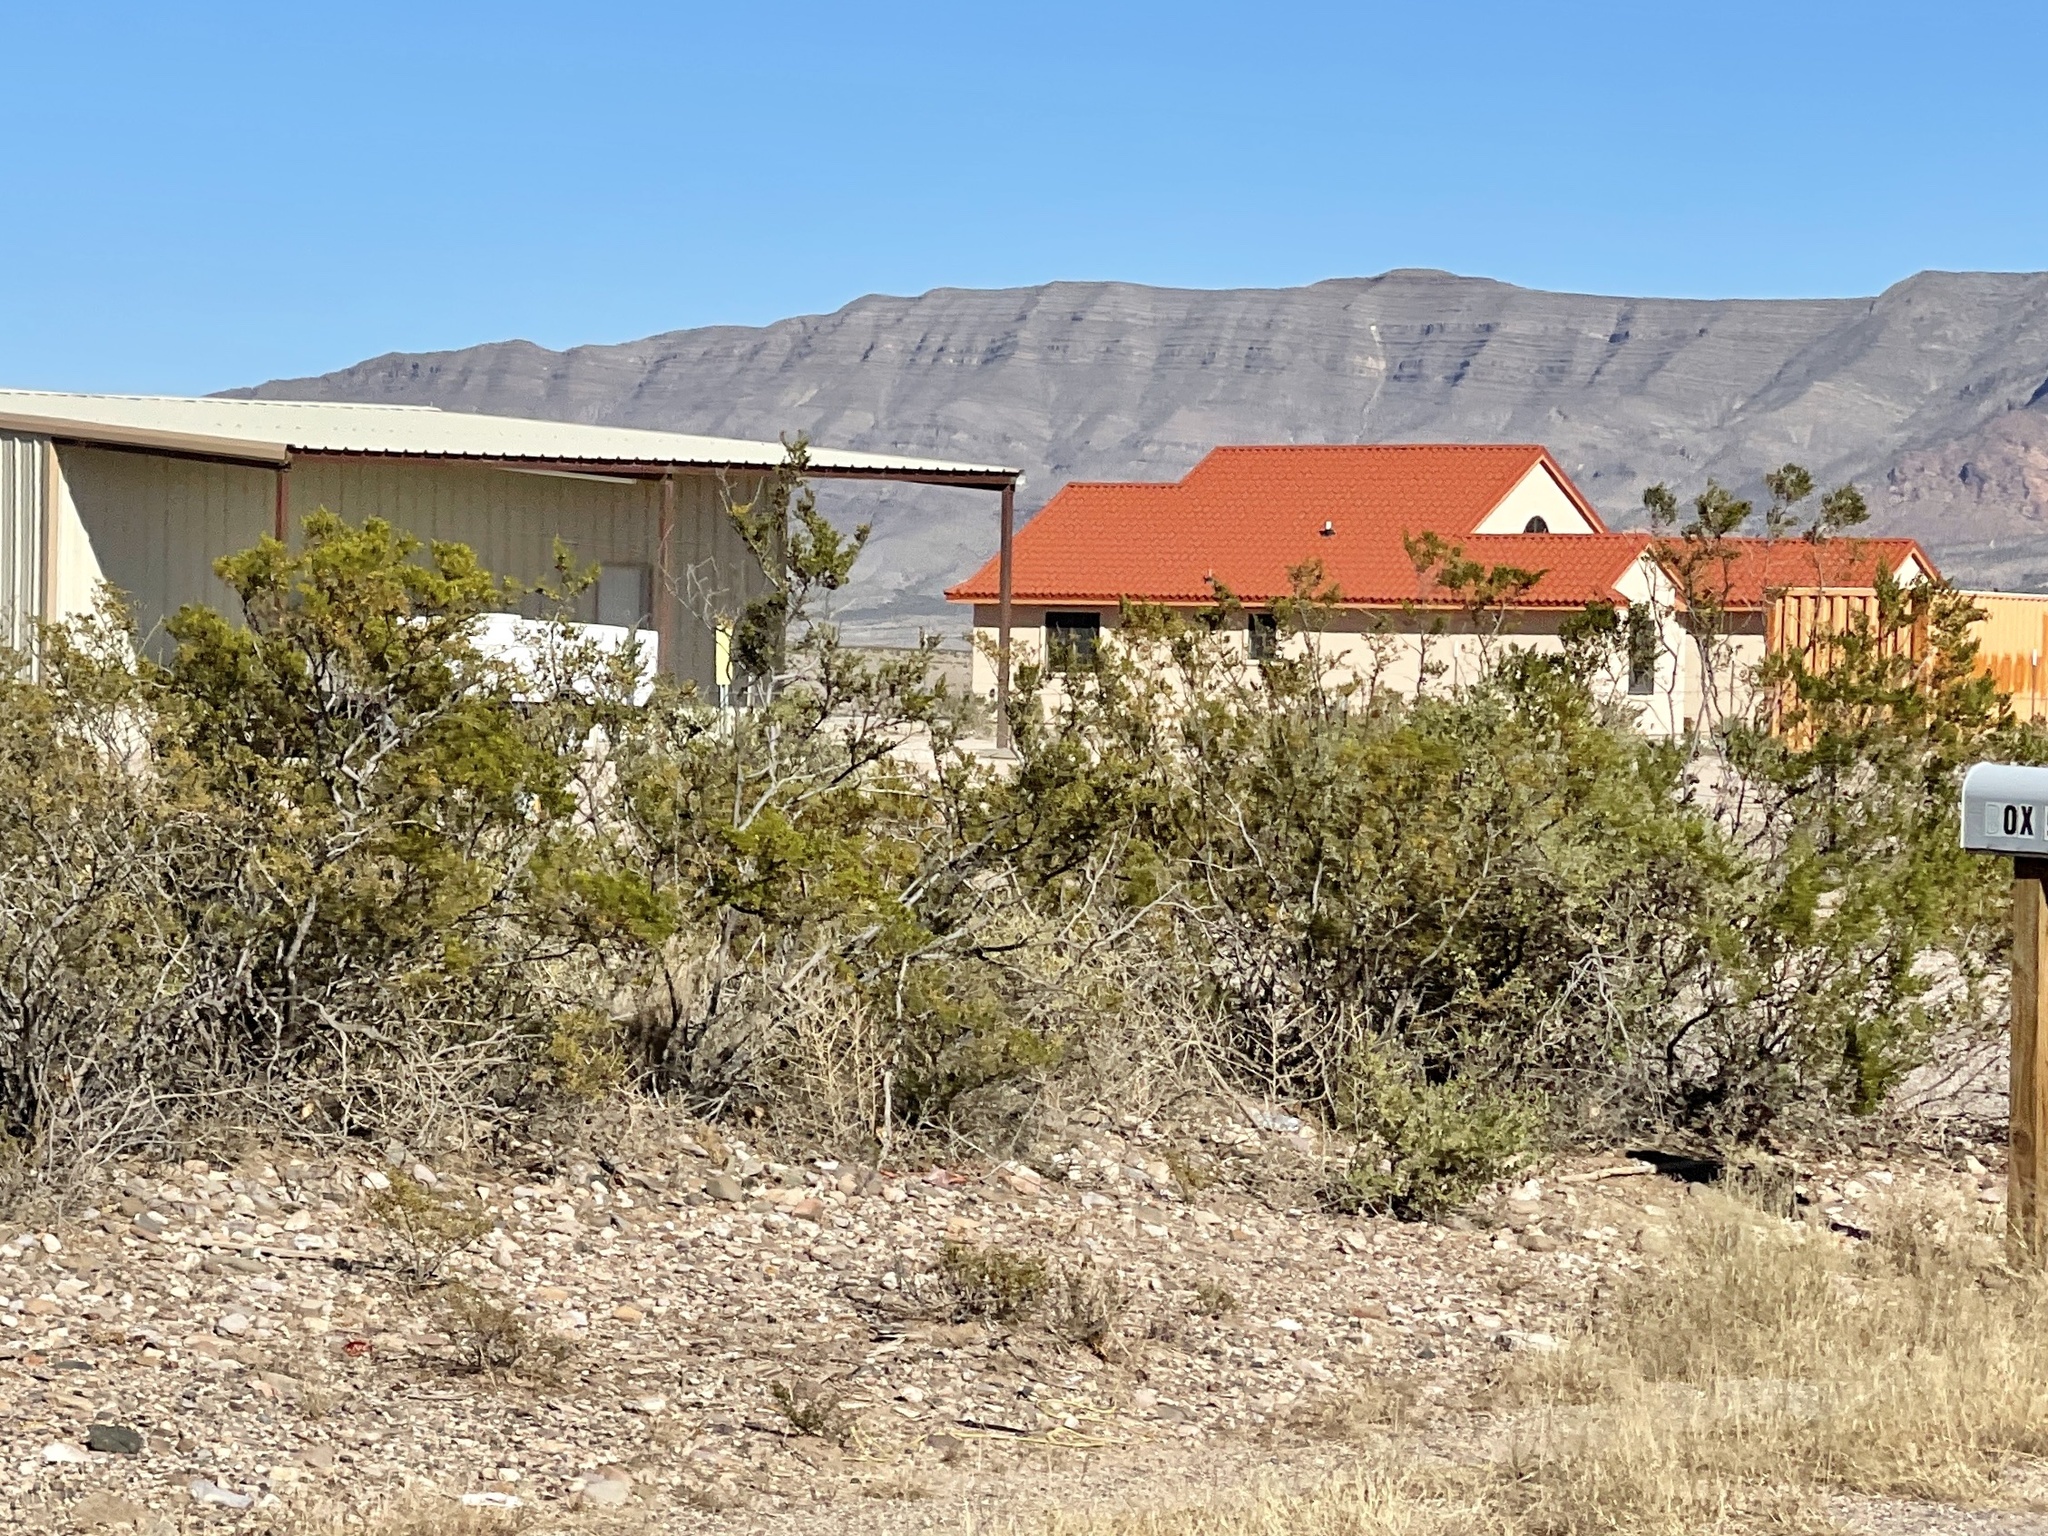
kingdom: Plantae
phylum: Tracheophyta
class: Magnoliopsida
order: Zygophyllales
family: Zygophyllaceae
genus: Larrea
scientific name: Larrea tridentata
